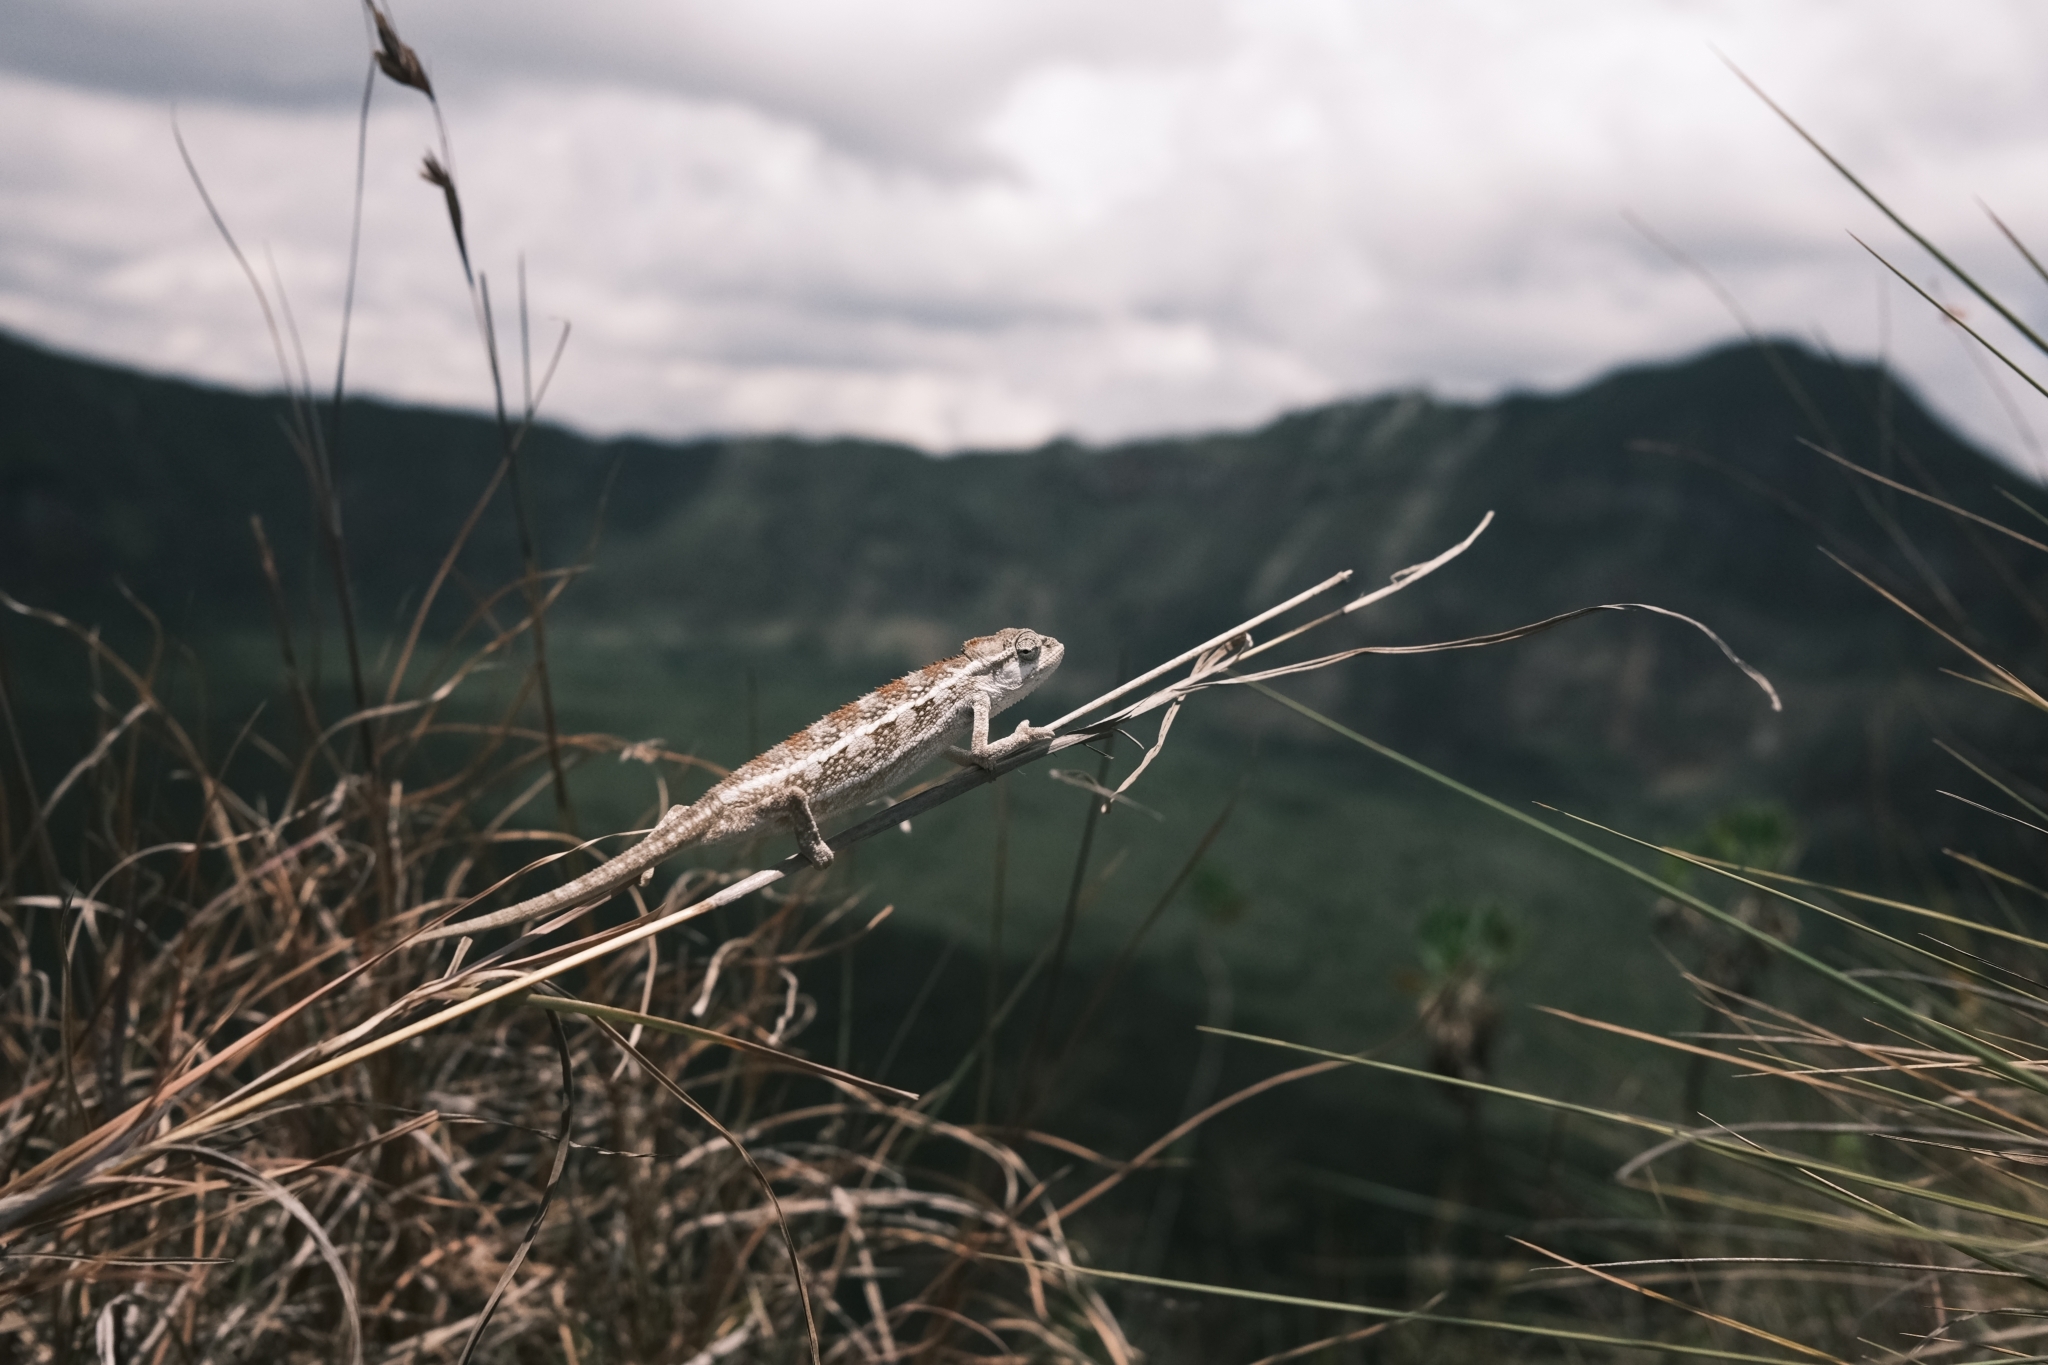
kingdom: Animalia
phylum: Chordata
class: Squamata
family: Chamaeleonidae
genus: Trioceros
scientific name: Trioceros bitaeniatus
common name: Two-lined chameleon
